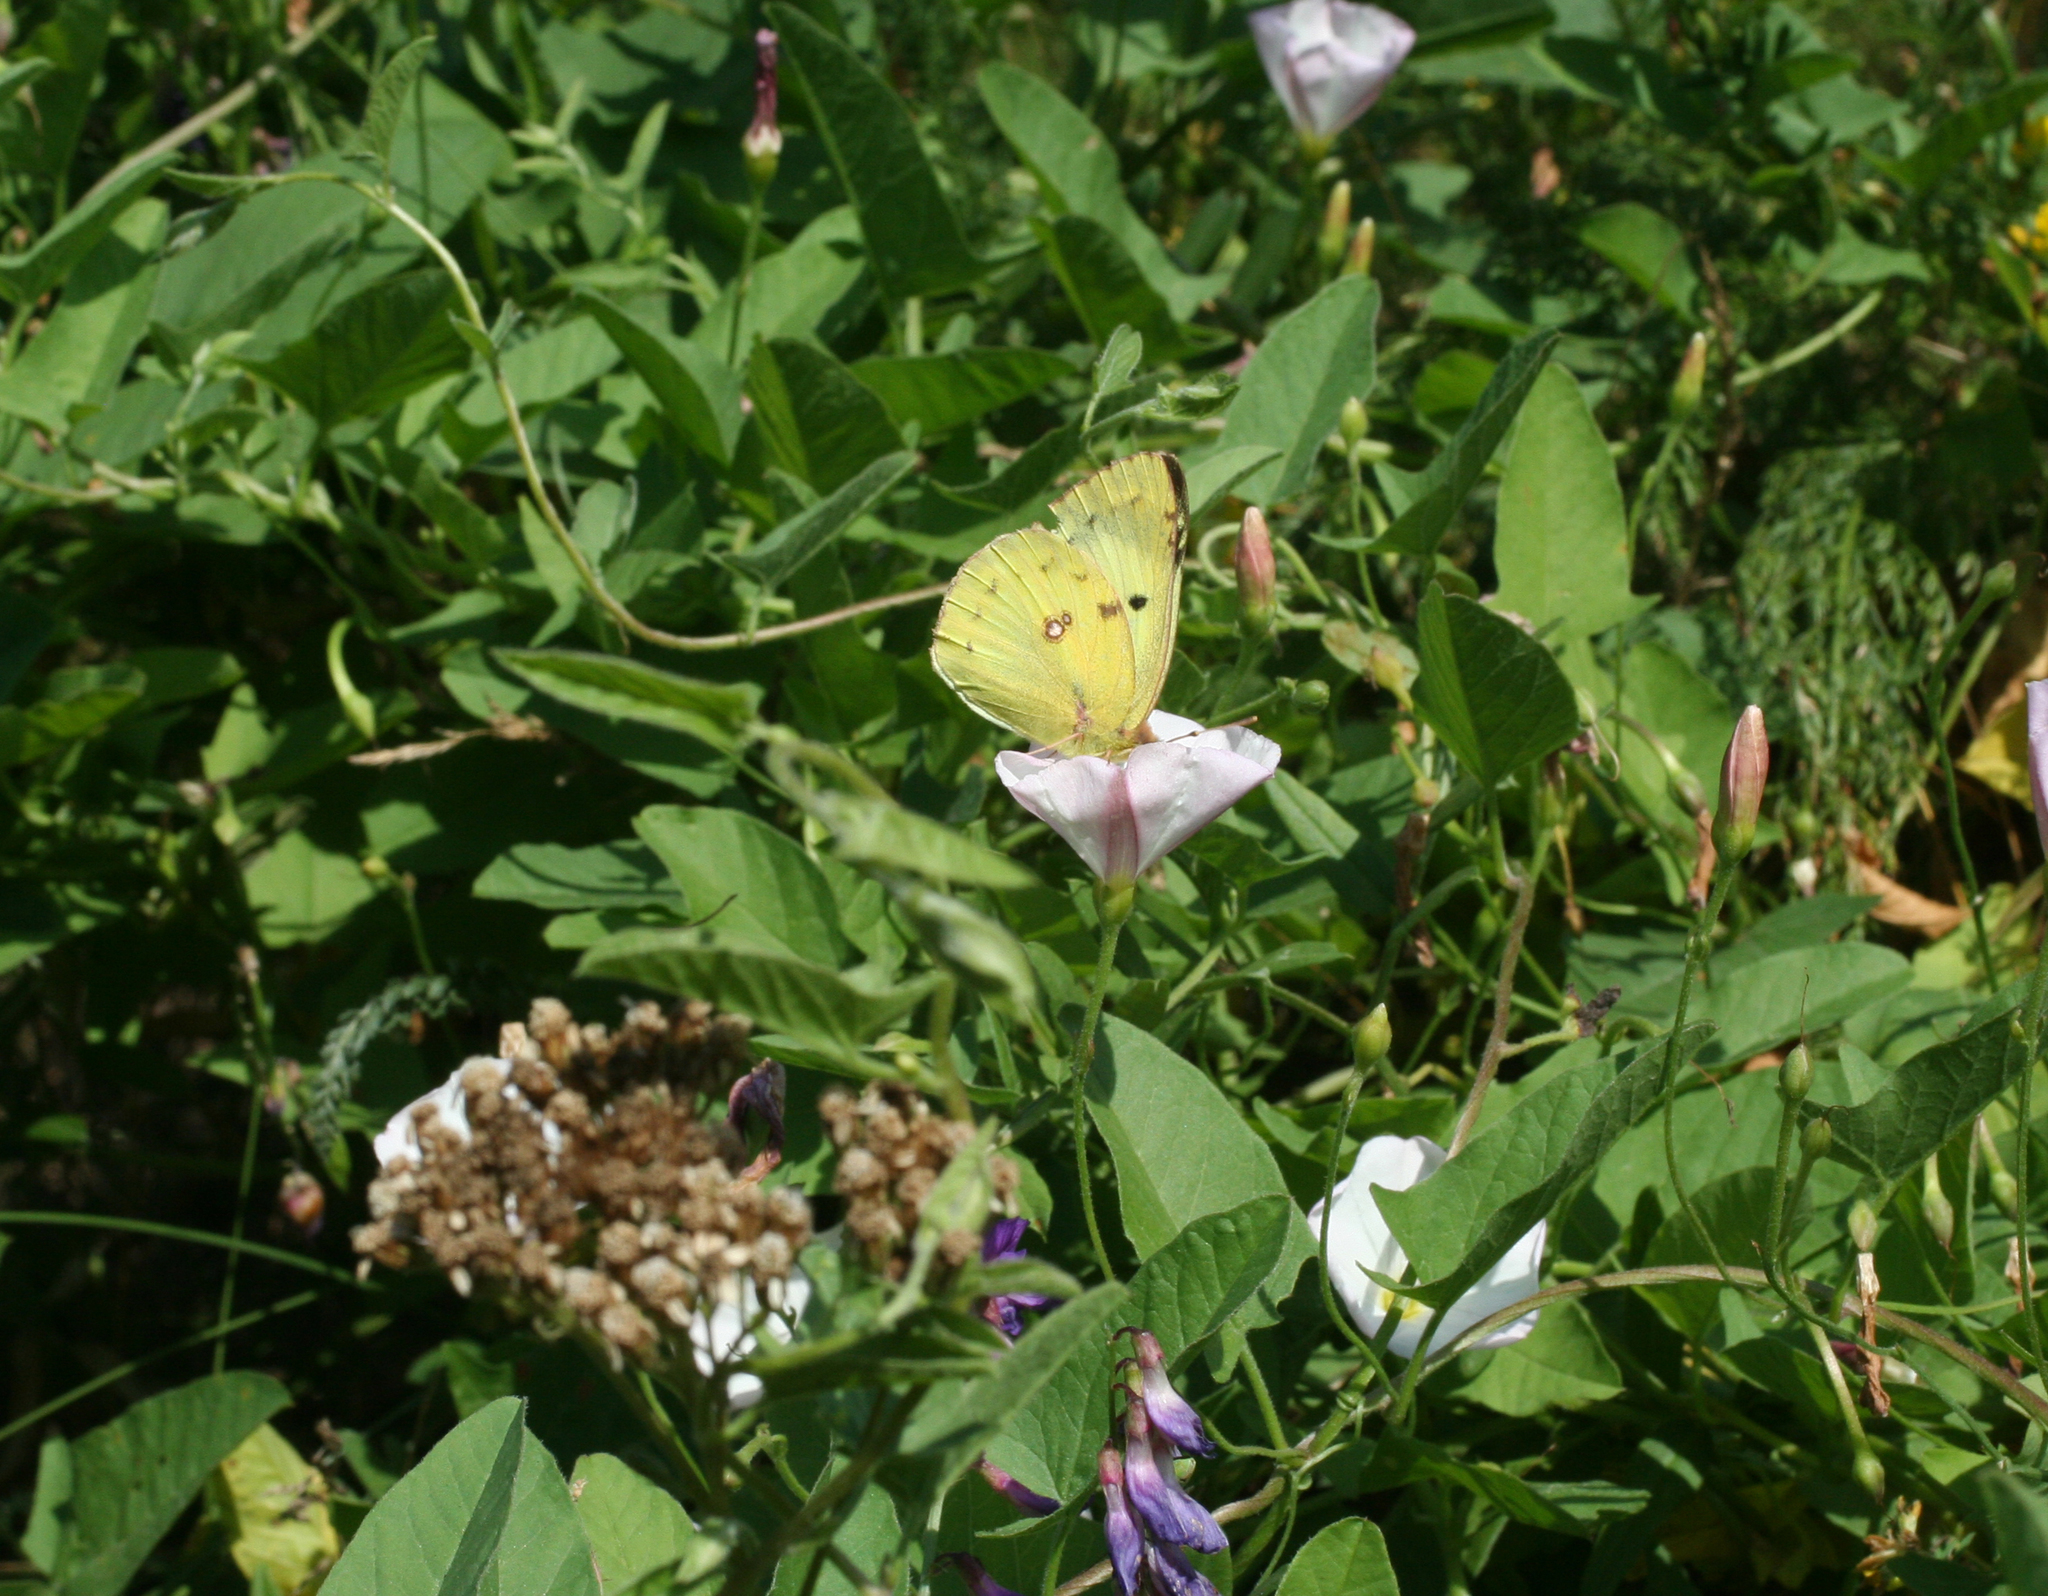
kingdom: Plantae
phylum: Tracheophyta
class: Magnoliopsida
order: Solanales
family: Convolvulaceae
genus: Convolvulus
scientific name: Convolvulus arvensis
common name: Field bindweed
